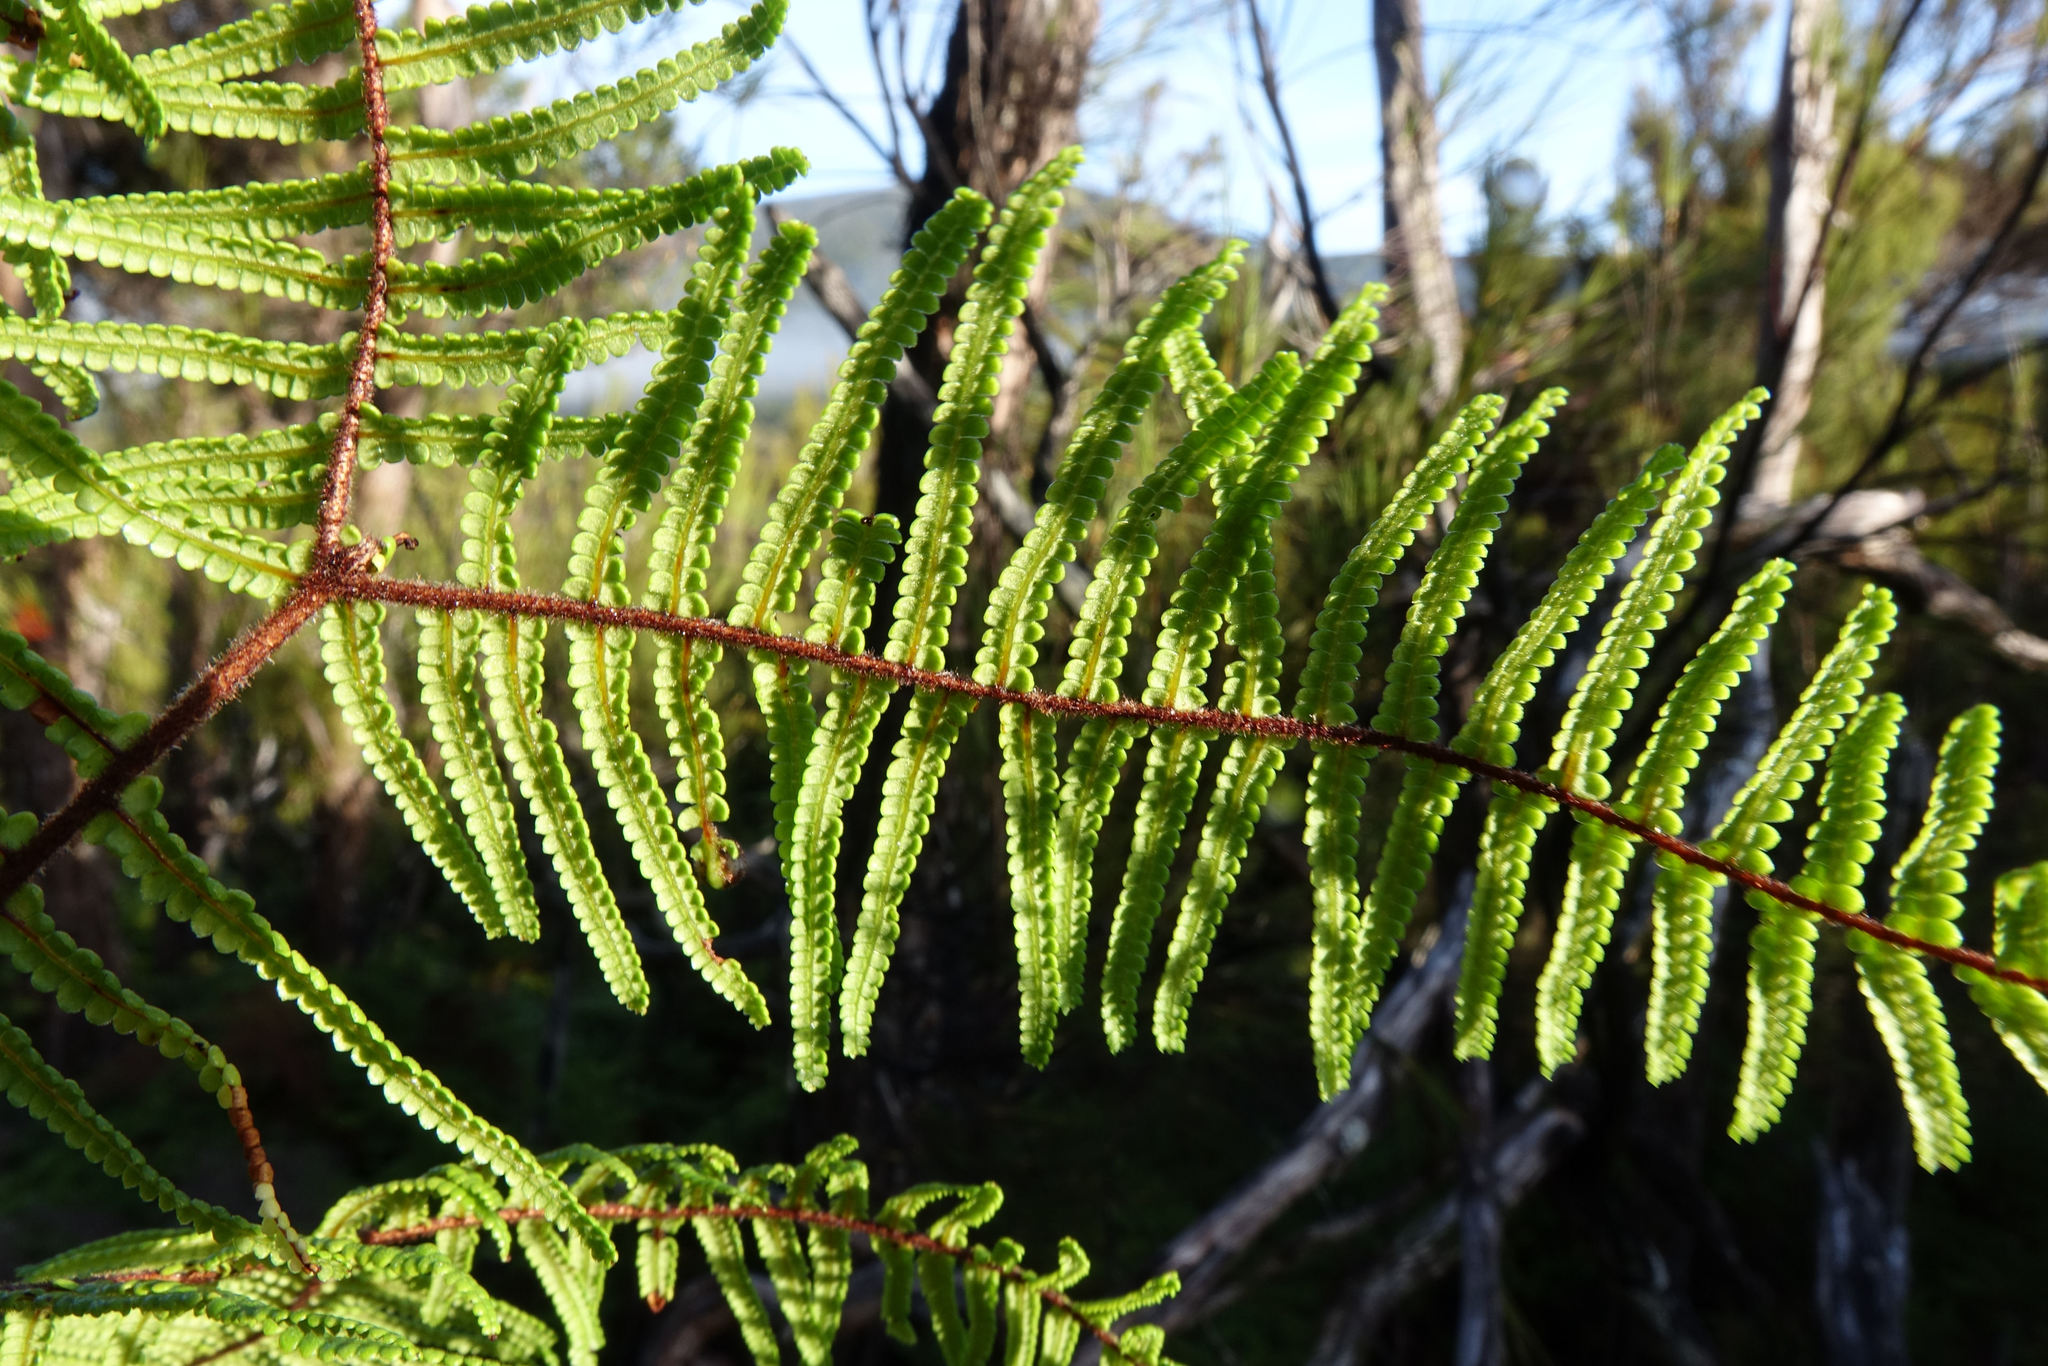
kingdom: Plantae
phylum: Tracheophyta
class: Polypodiopsida
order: Gleicheniales
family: Gleicheniaceae
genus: Gleichenia
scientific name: Gleichenia microphylla
